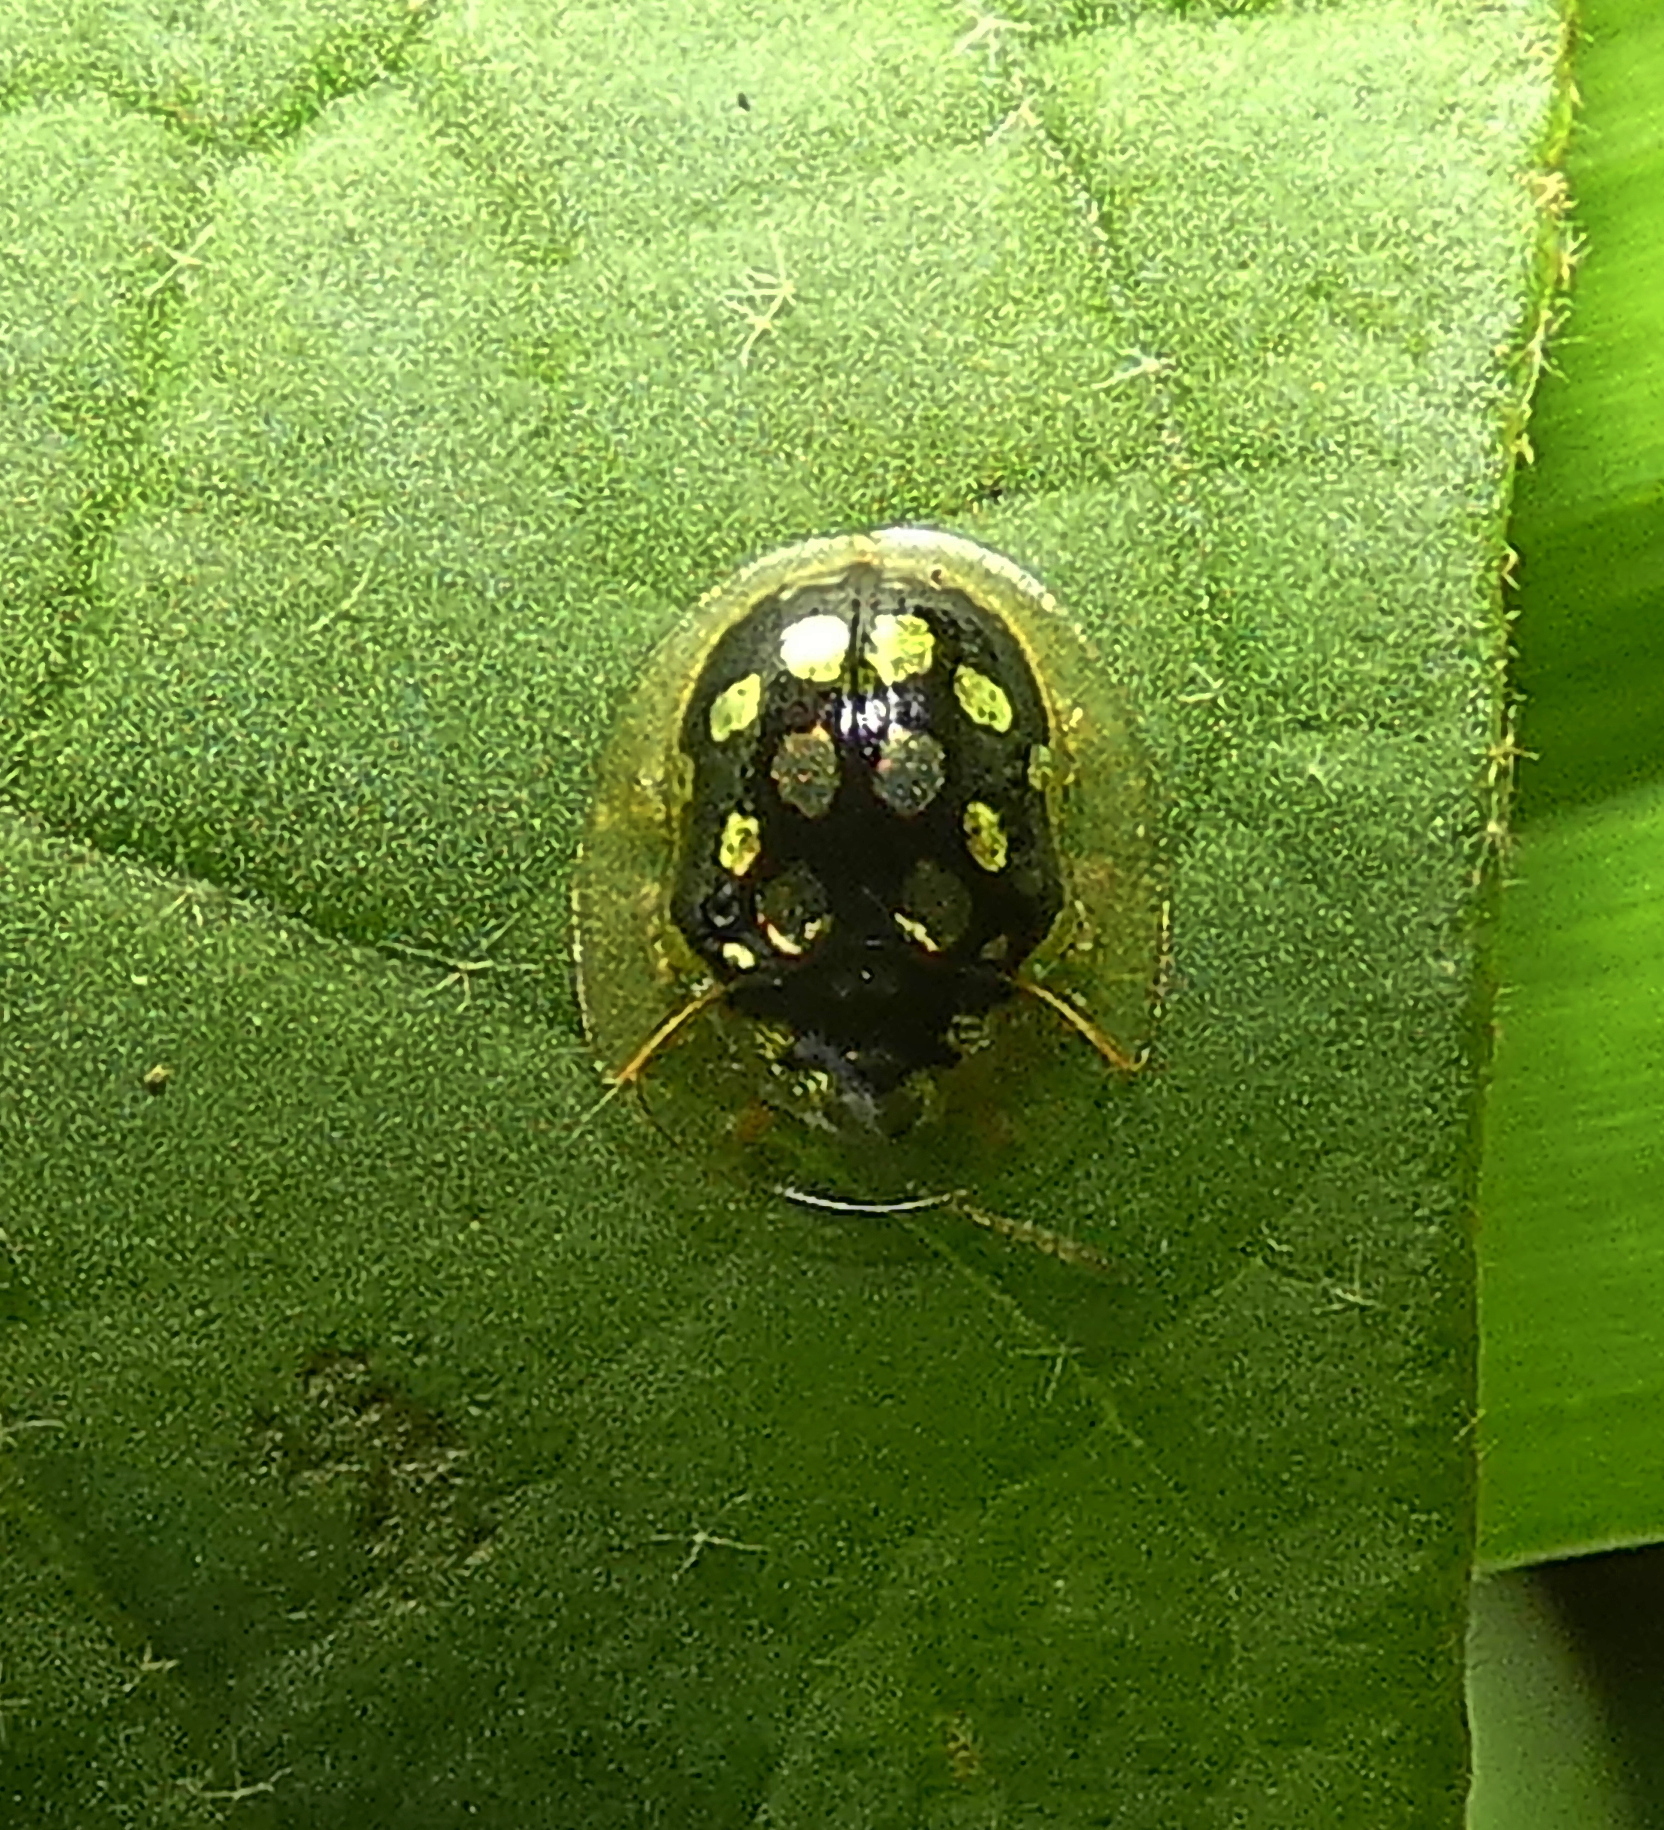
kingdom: Animalia
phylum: Arthropoda
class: Insecta
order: Coleoptera
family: Chrysomelidae
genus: Plagiometriona
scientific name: Plagiometriona microcera
